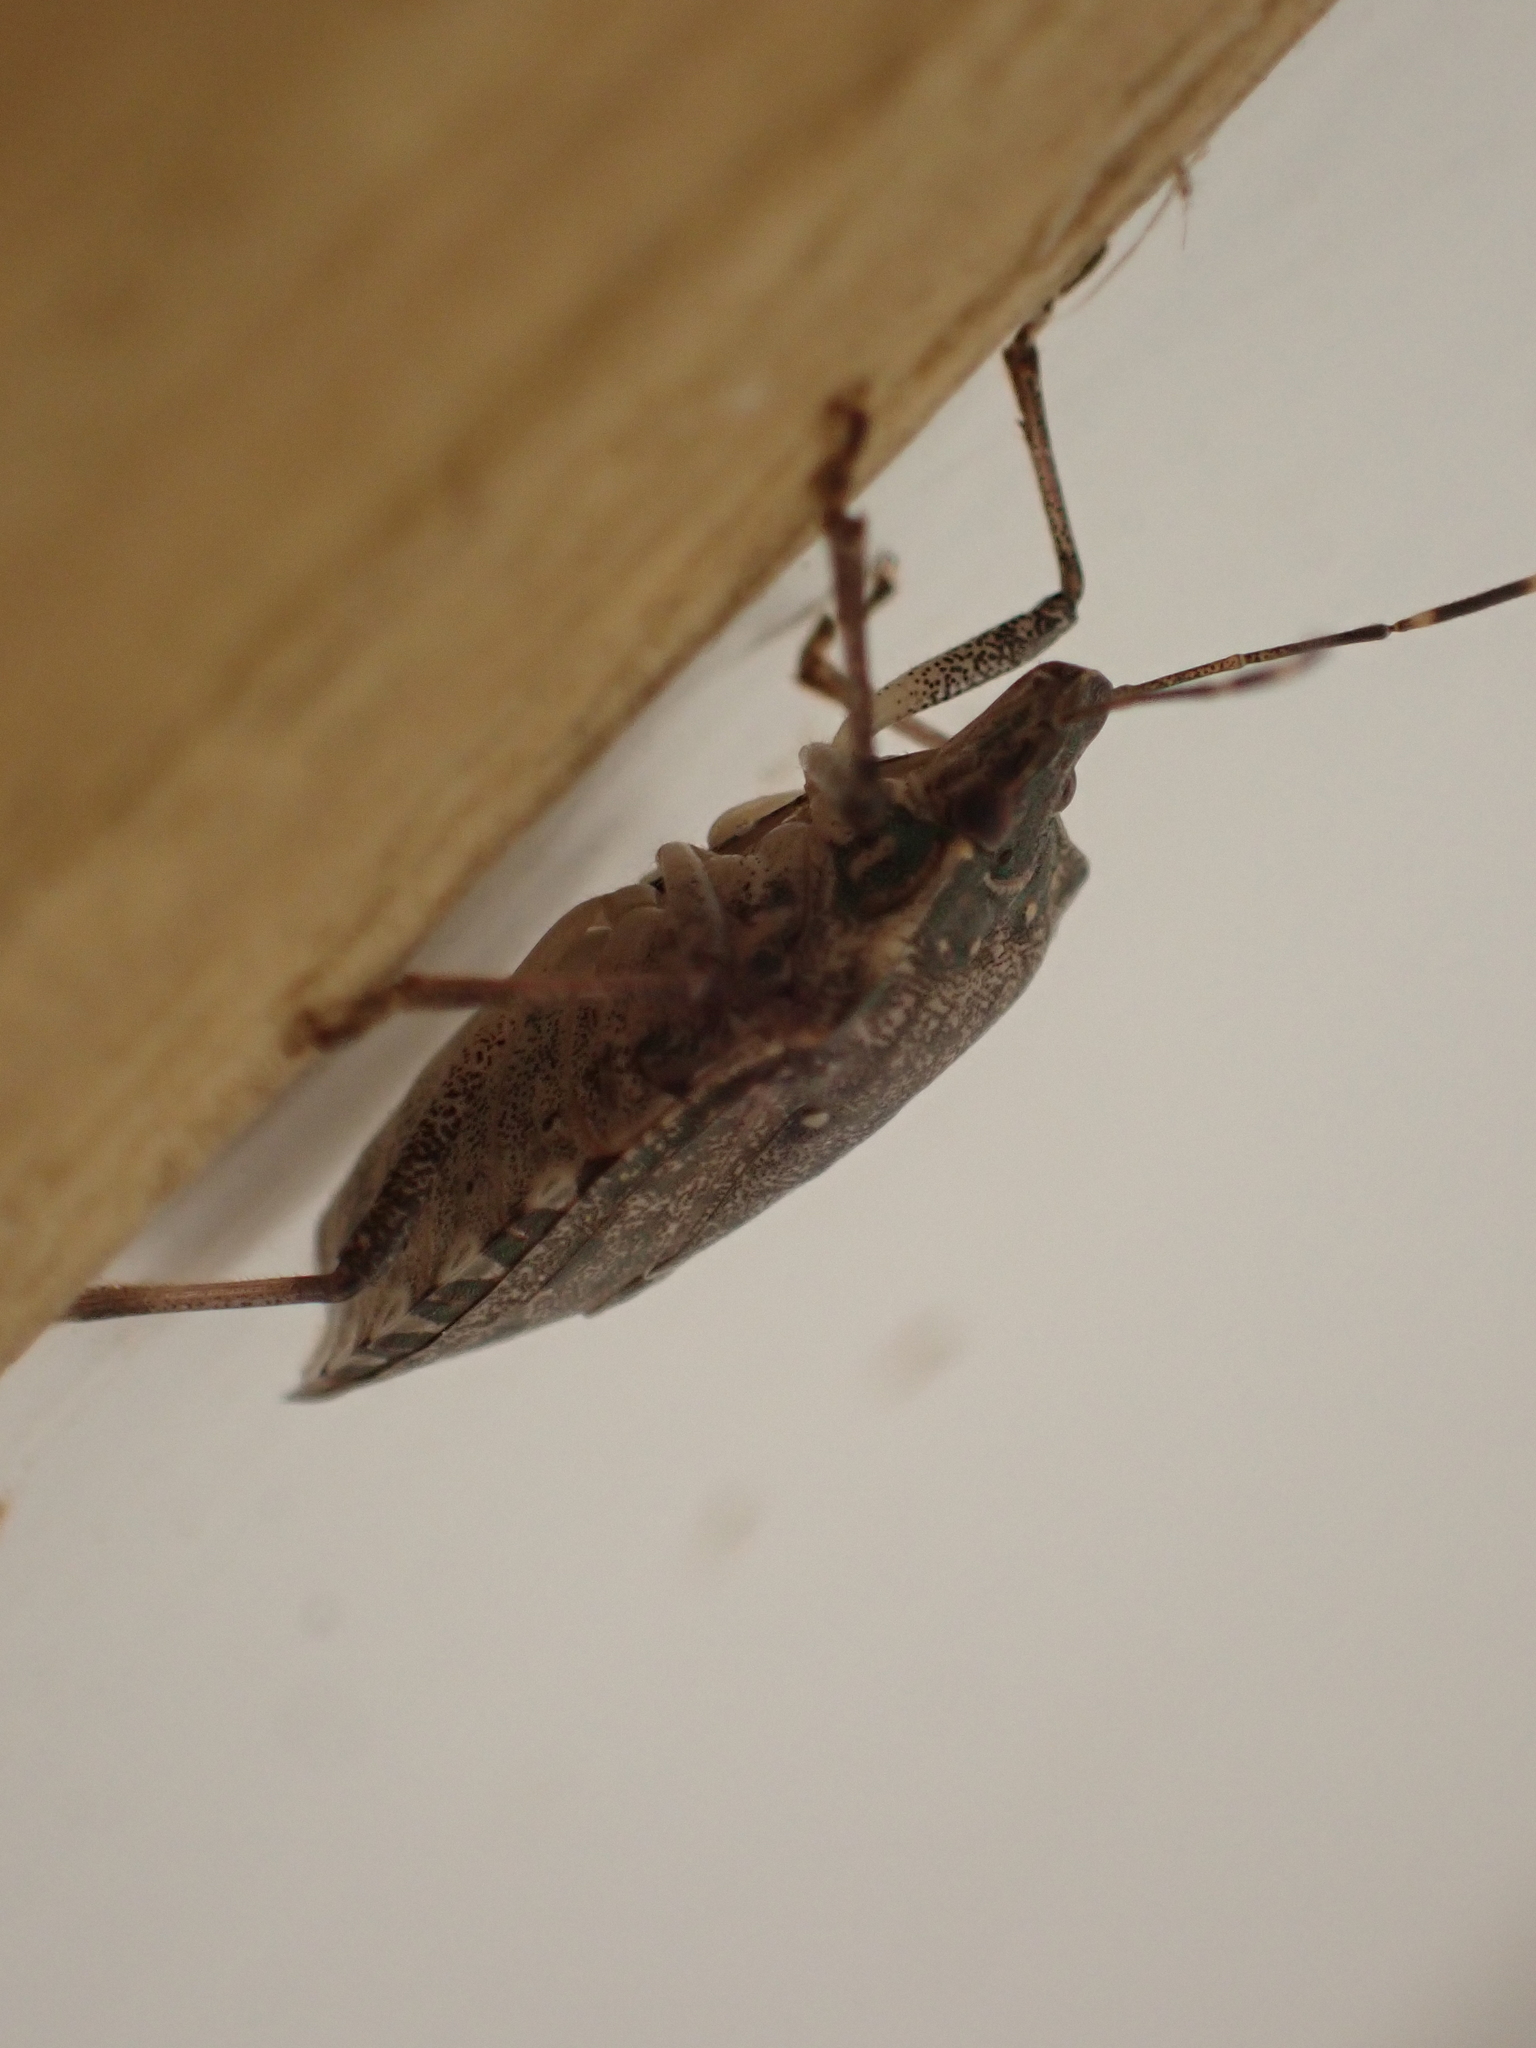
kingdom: Animalia
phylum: Arthropoda
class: Insecta
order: Hemiptera
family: Pentatomidae
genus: Halyomorpha
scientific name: Halyomorpha halys
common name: Brown marmorated stink bug
